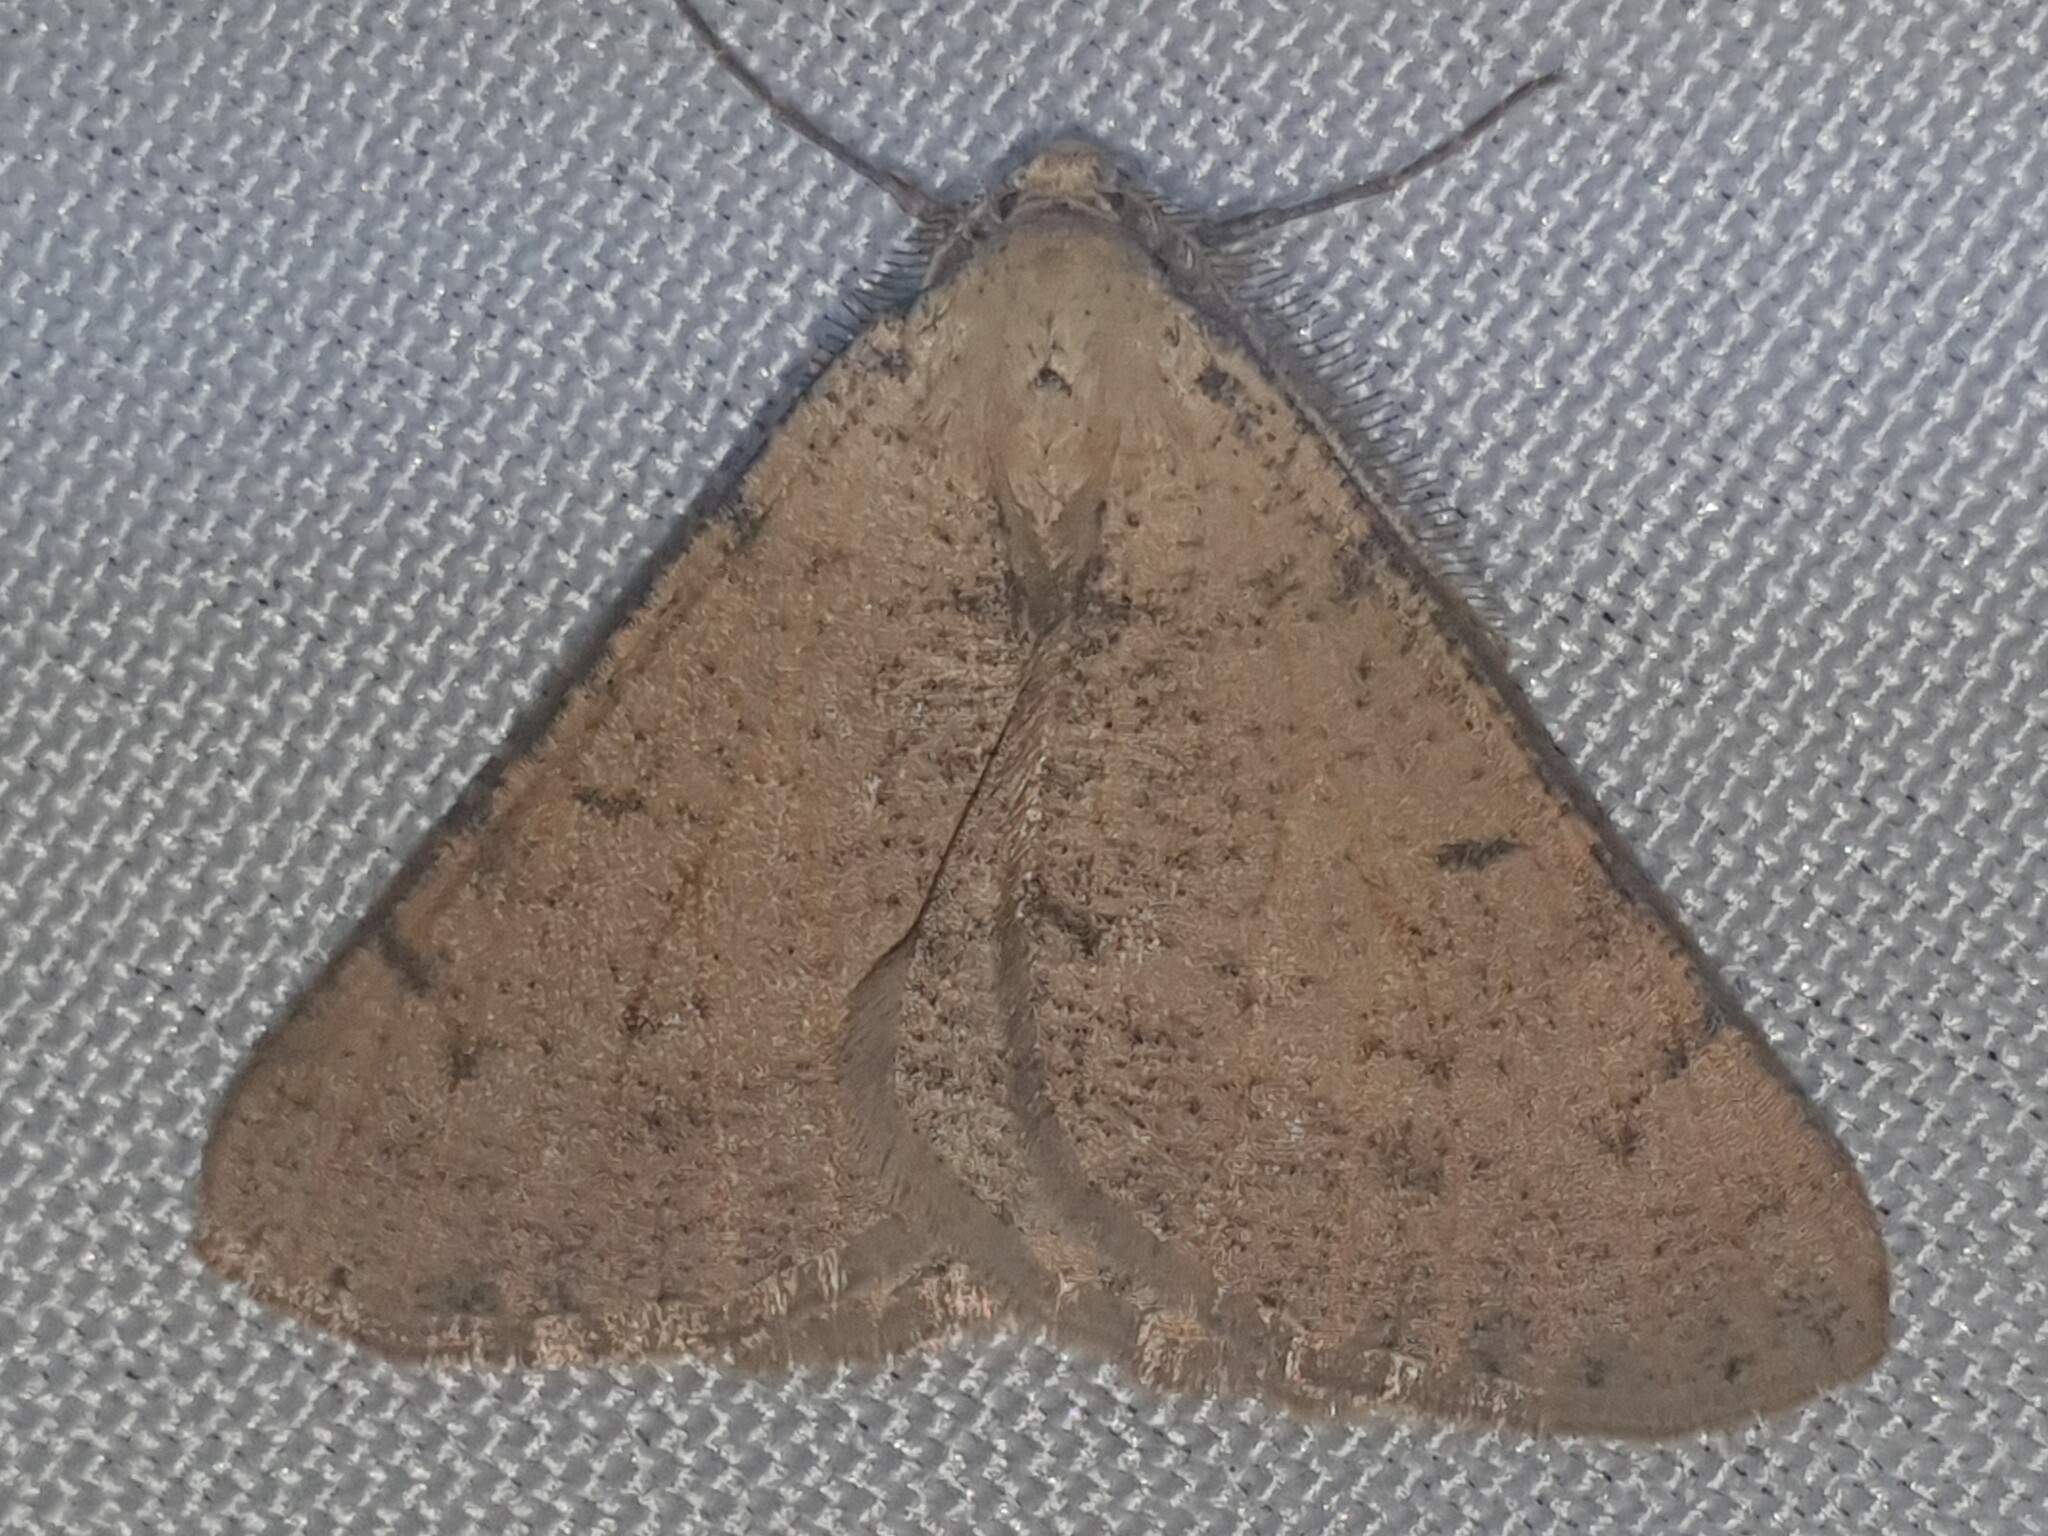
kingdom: Animalia
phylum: Arthropoda
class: Insecta
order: Lepidoptera
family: Geometridae
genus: Isturgia
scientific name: Isturgia miniosaria
